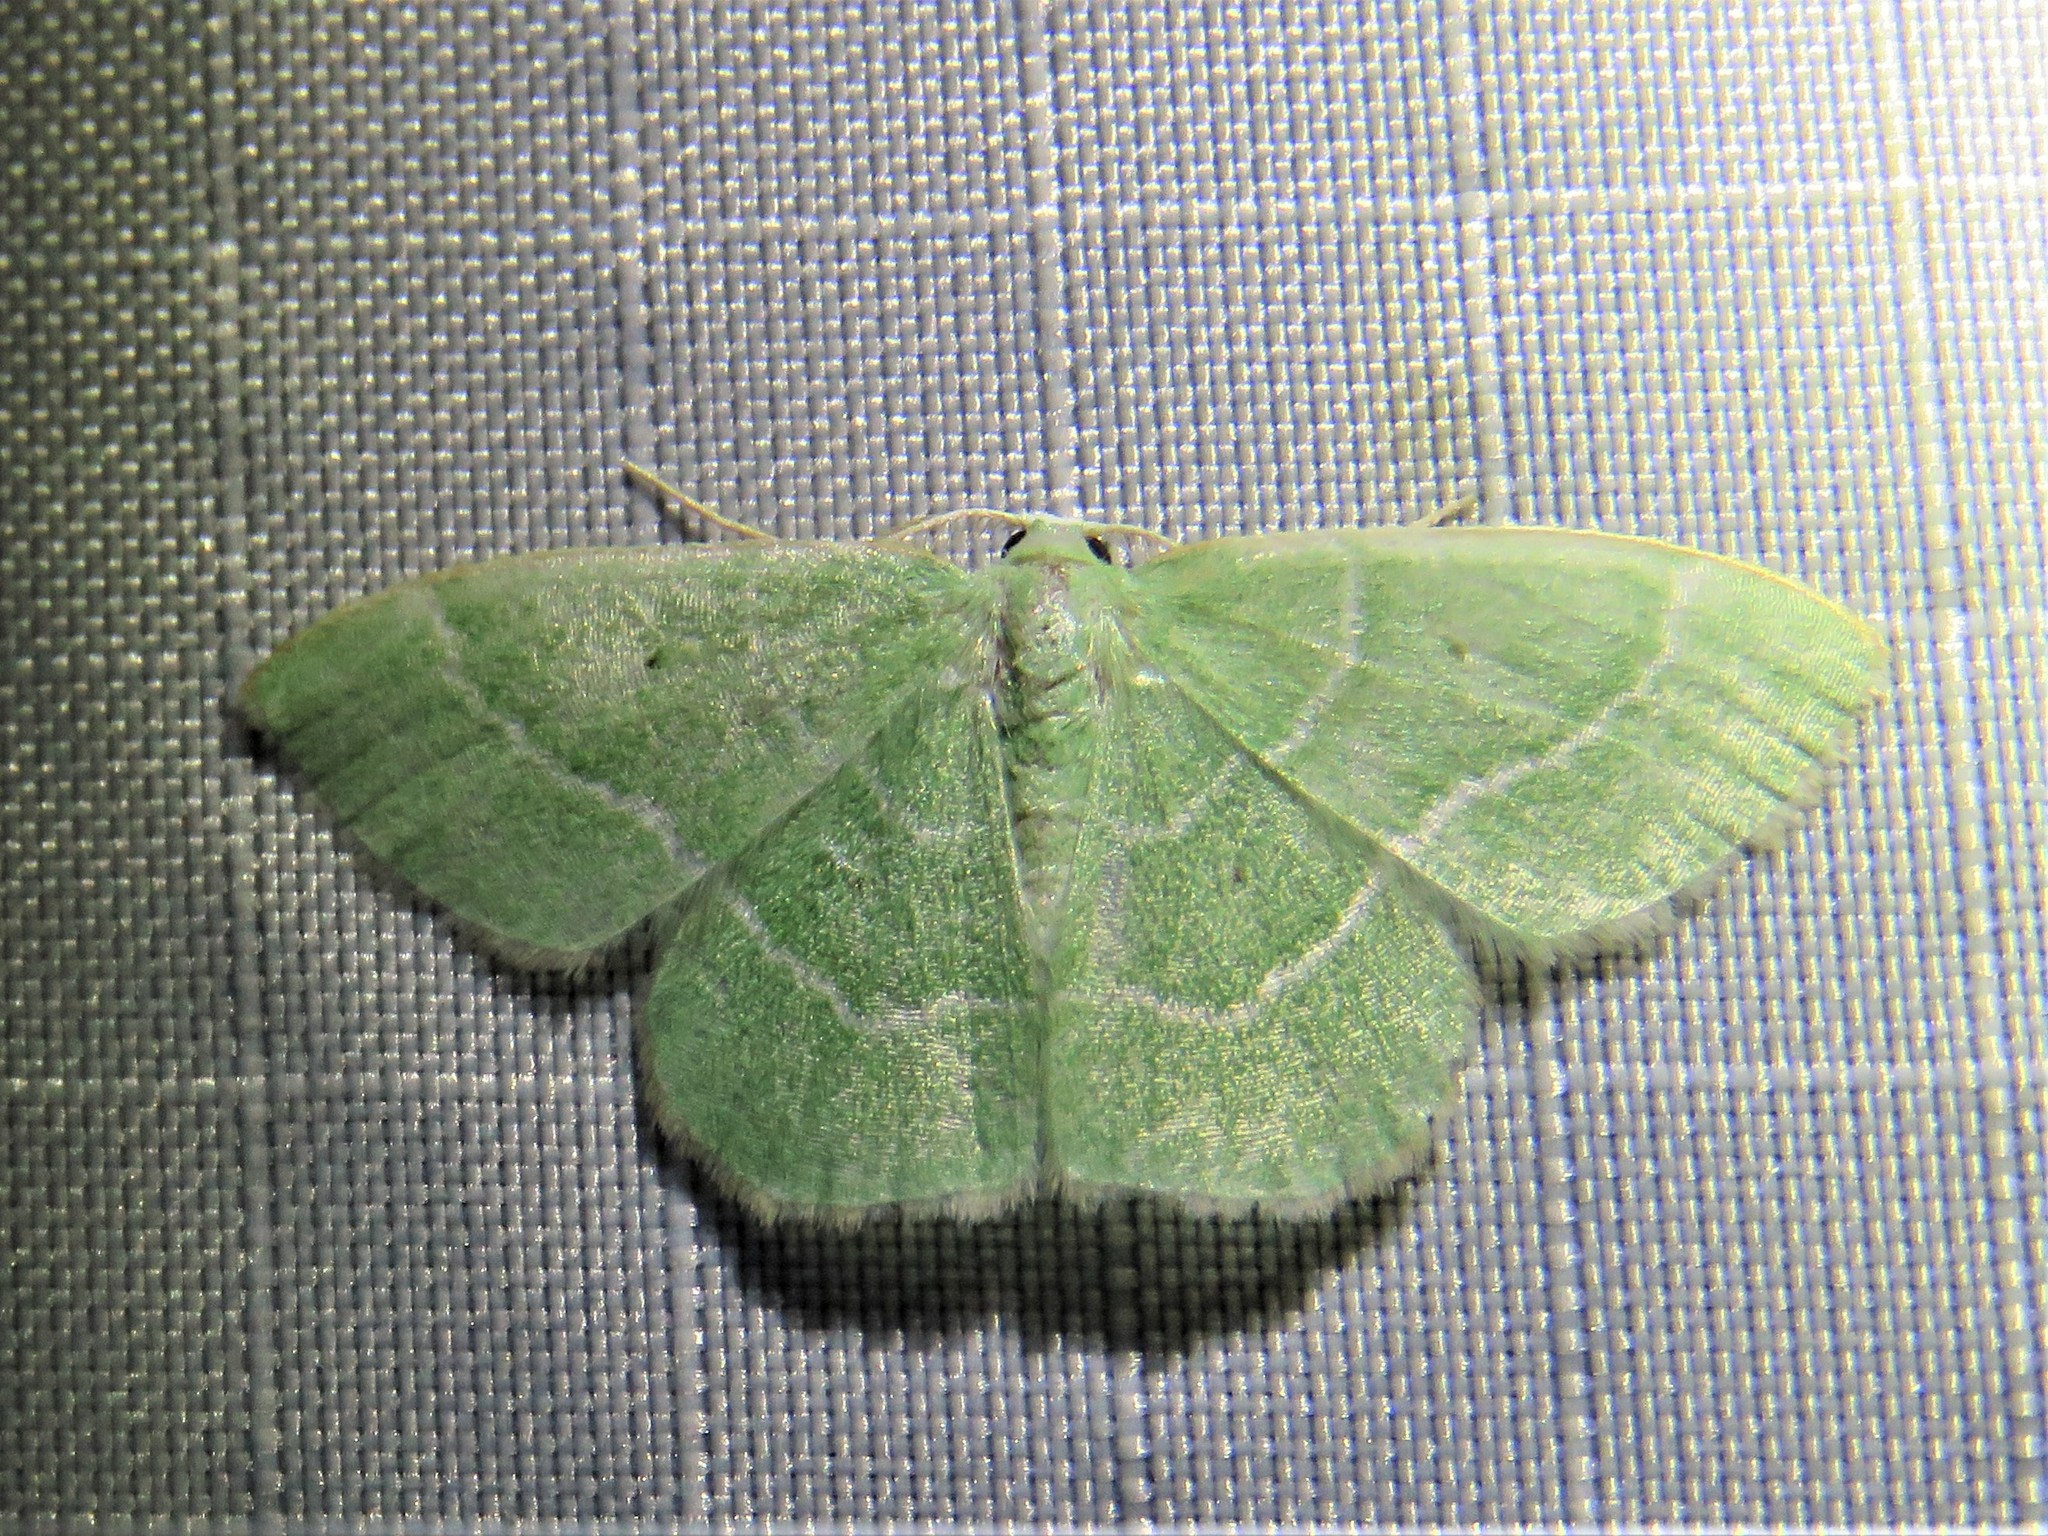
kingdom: Animalia
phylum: Arthropoda
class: Insecta
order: Lepidoptera
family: Geometridae
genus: Nemoria
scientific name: Nemoria elfa
